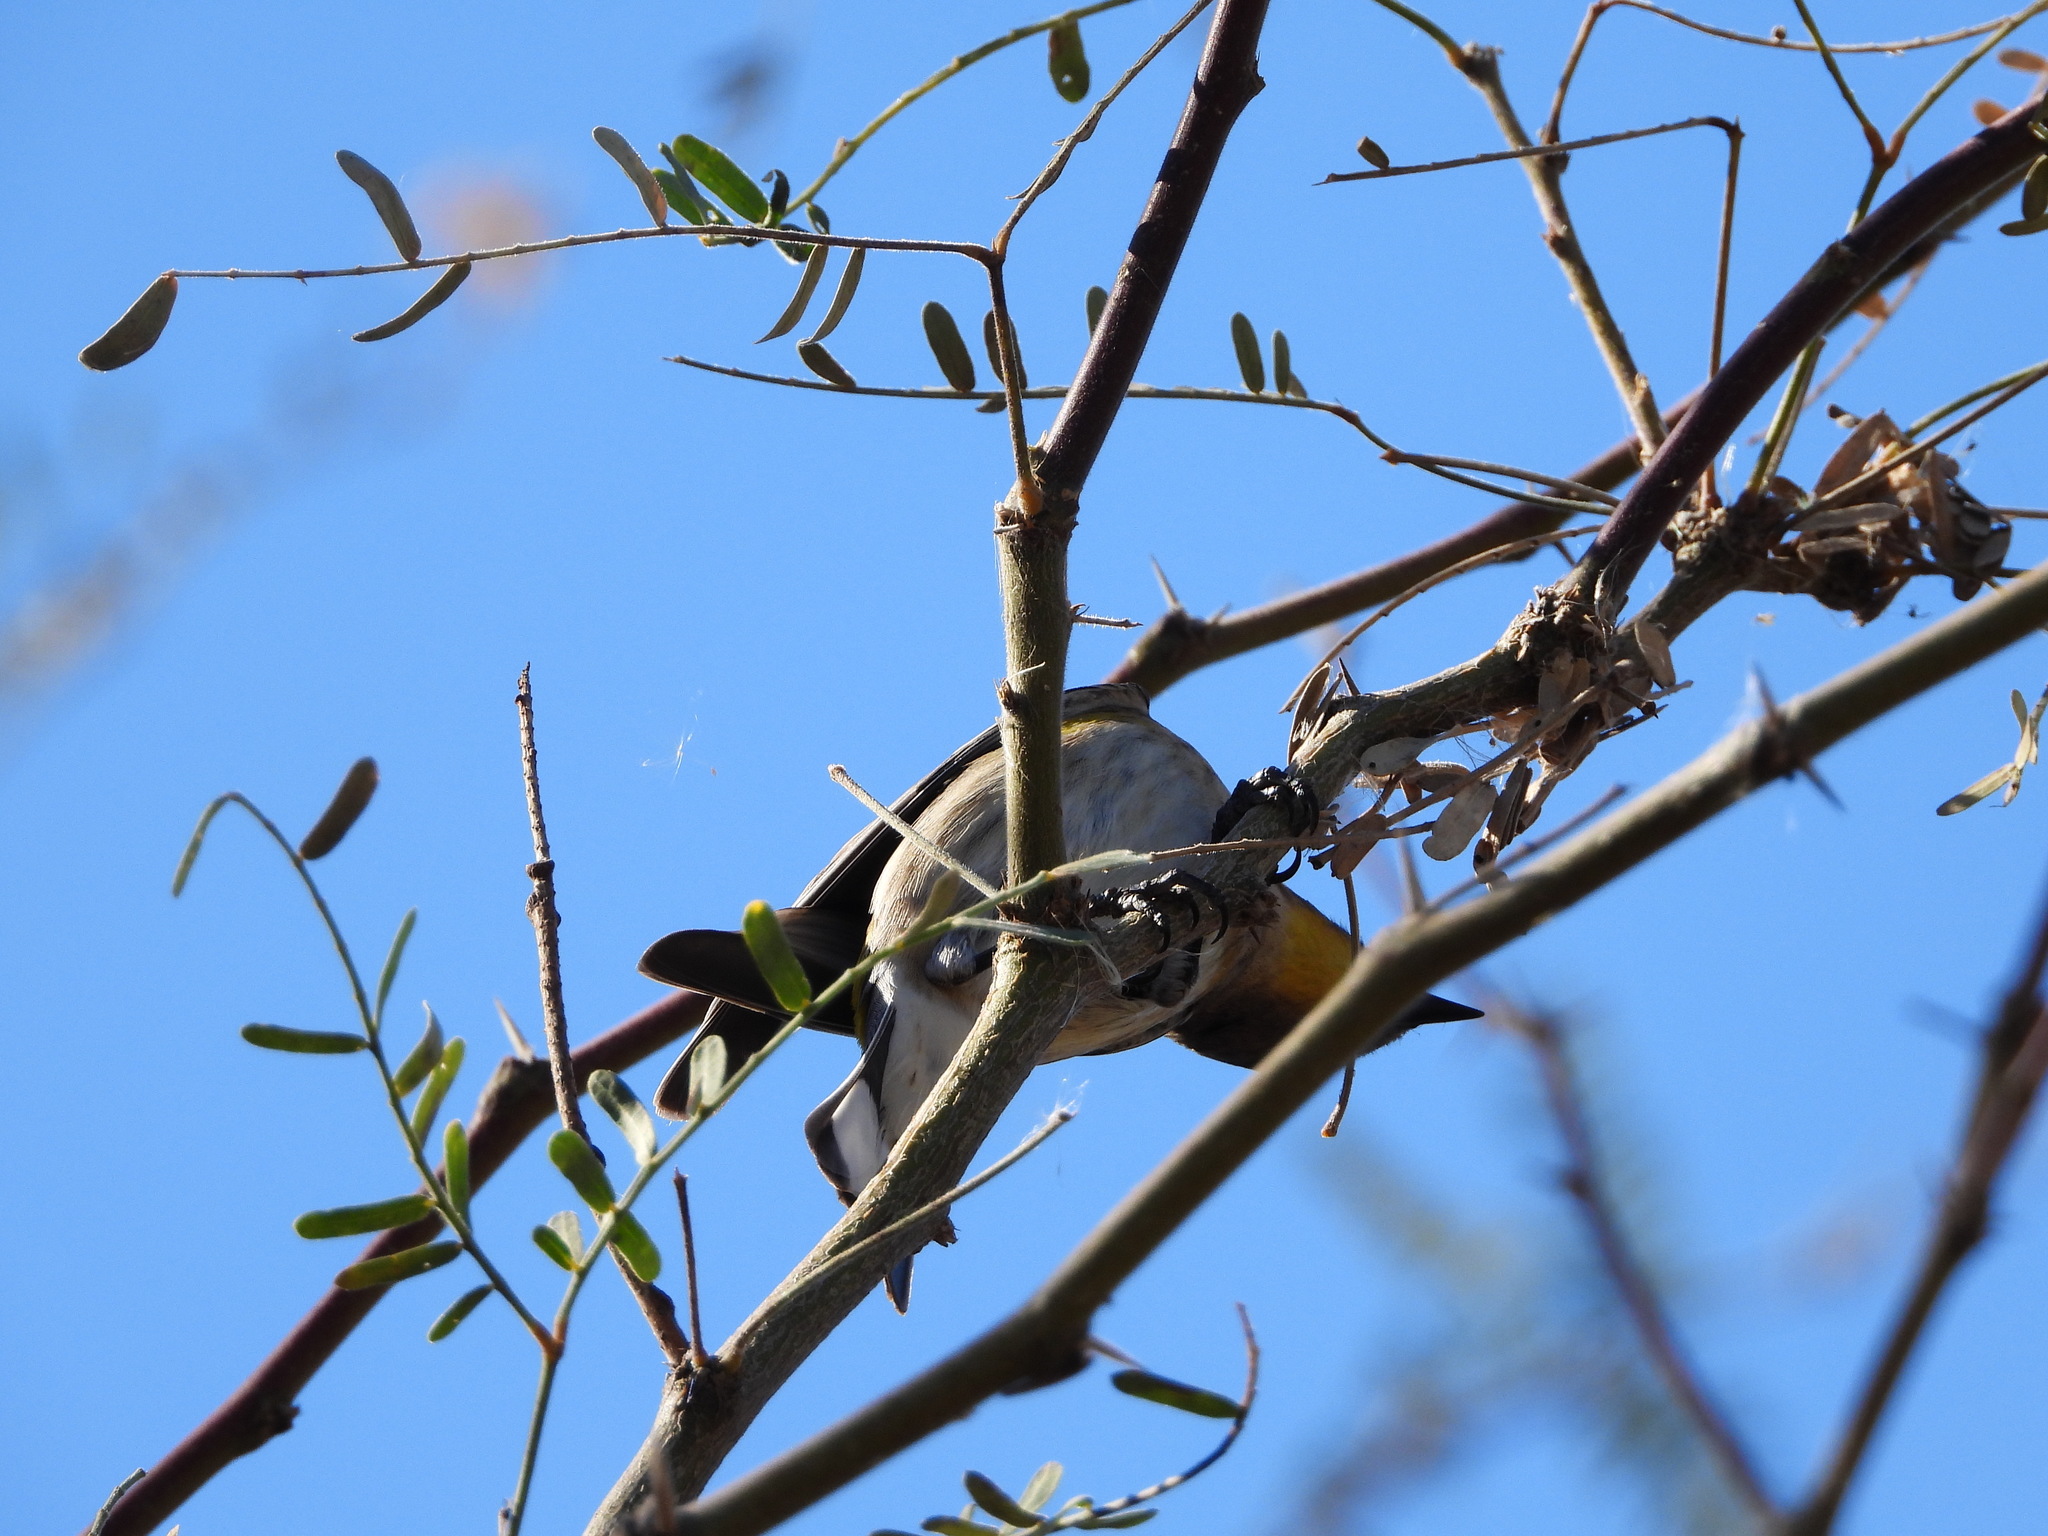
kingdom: Animalia
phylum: Chordata
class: Aves
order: Passeriformes
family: Parulidae
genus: Setophaga
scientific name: Setophaga auduboni
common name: Audubon's warbler
